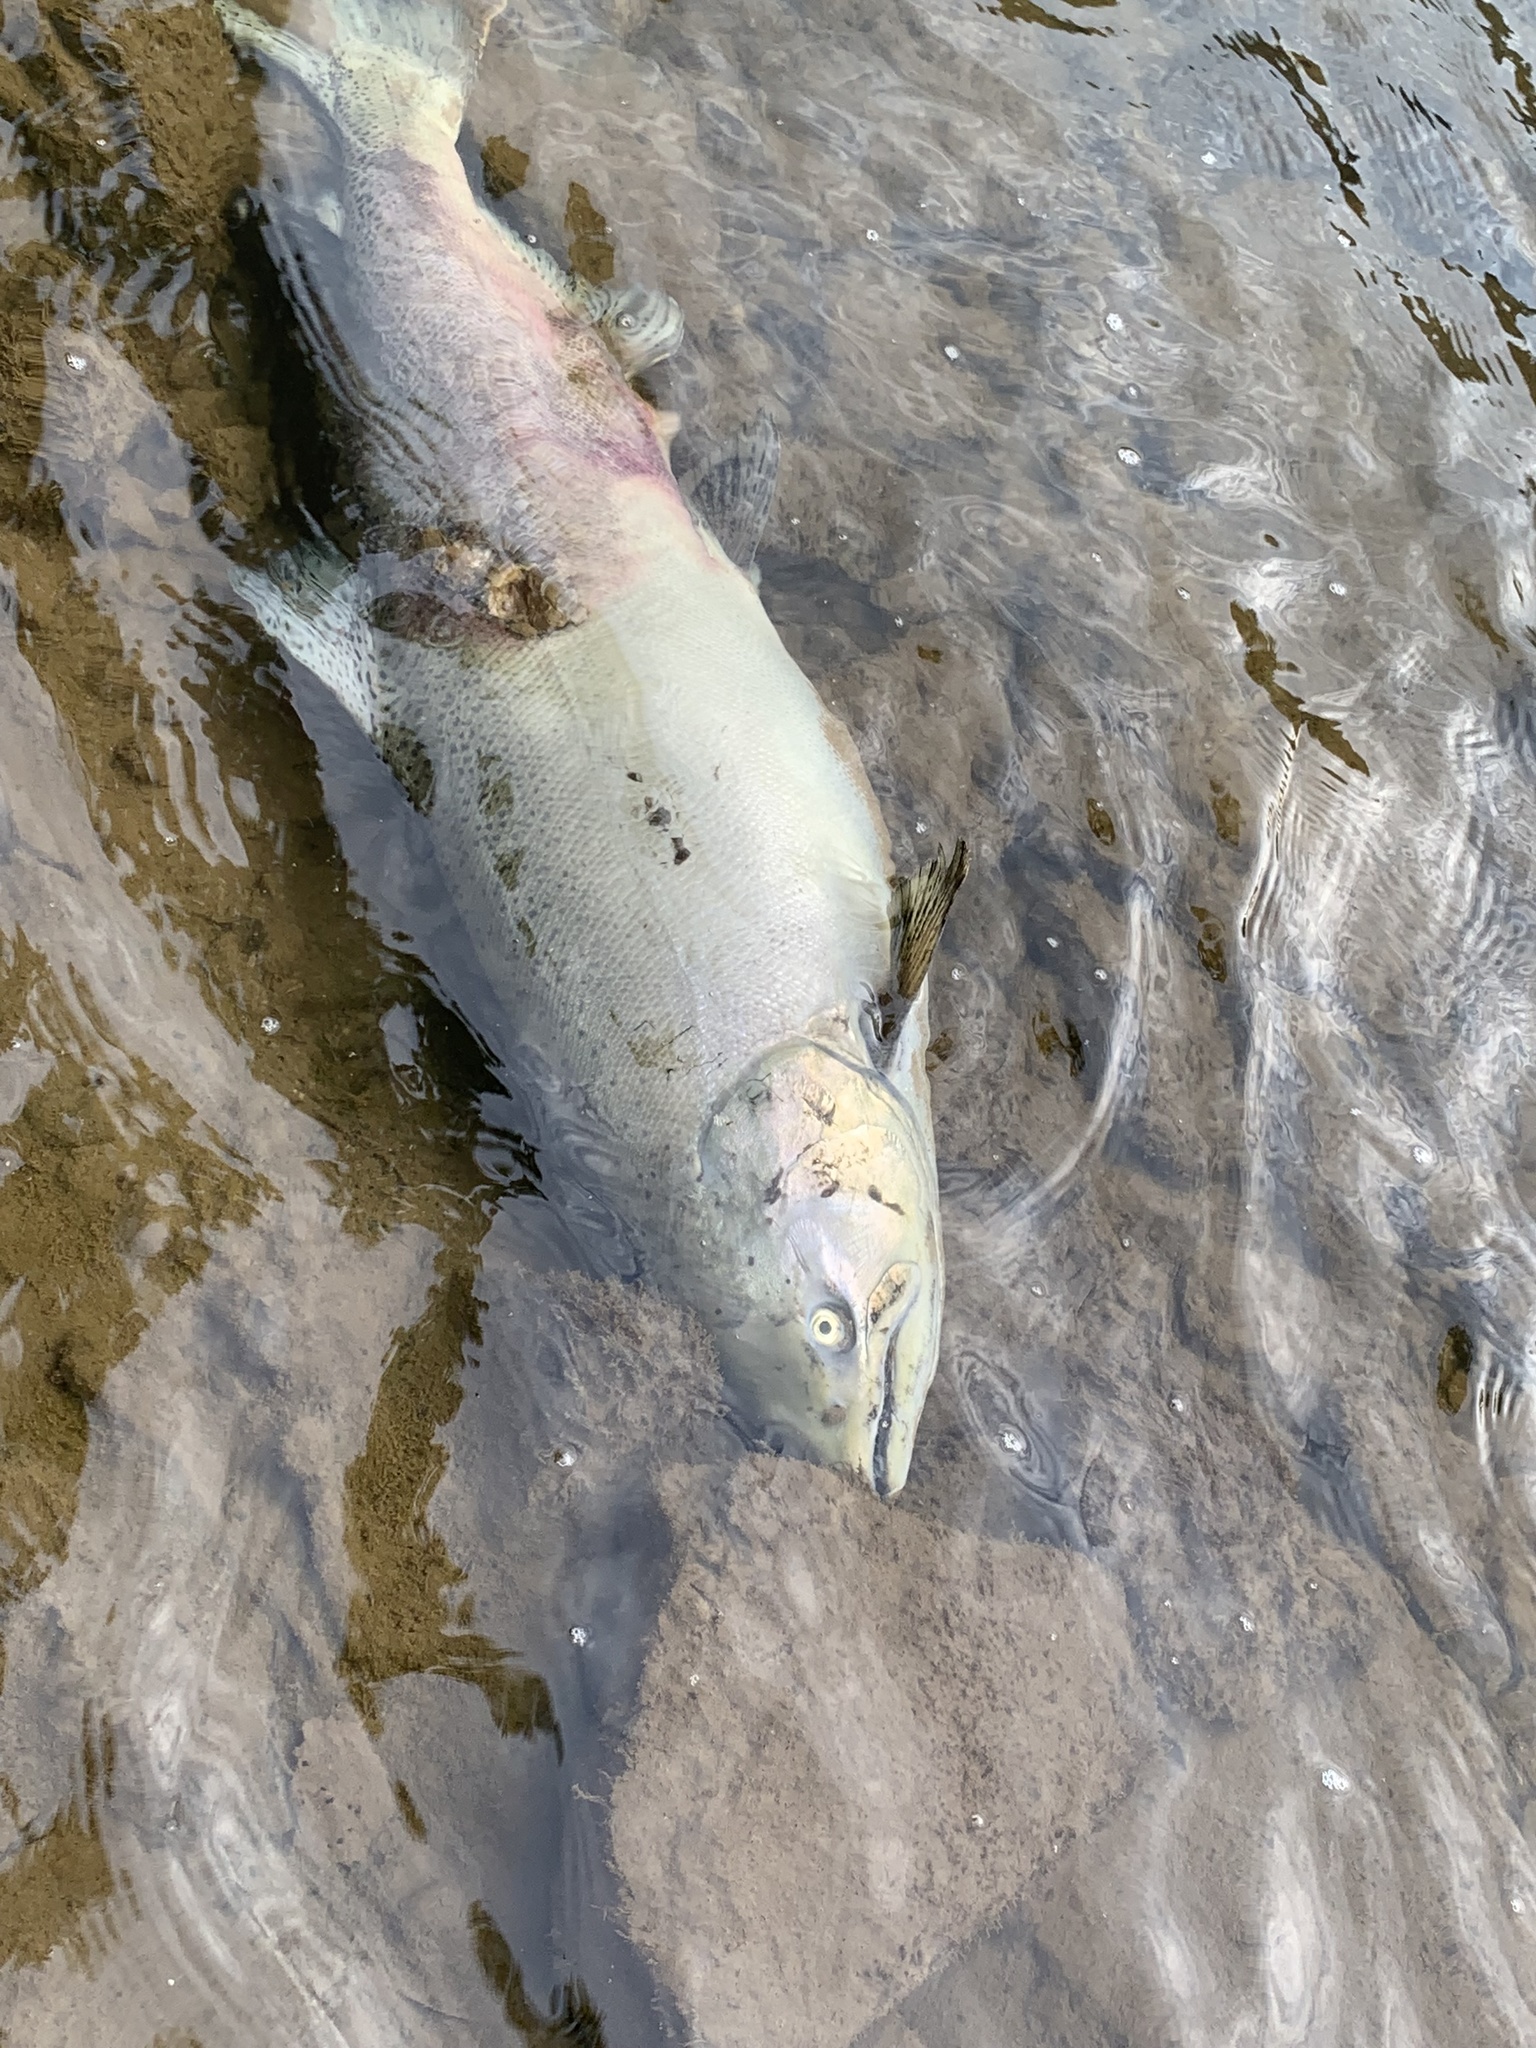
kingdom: Animalia
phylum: Chordata
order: Salmoniformes
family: Salmonidae
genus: Oncorhynchus
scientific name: Oncorhynchus tshawytscha
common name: Chinook salmon
